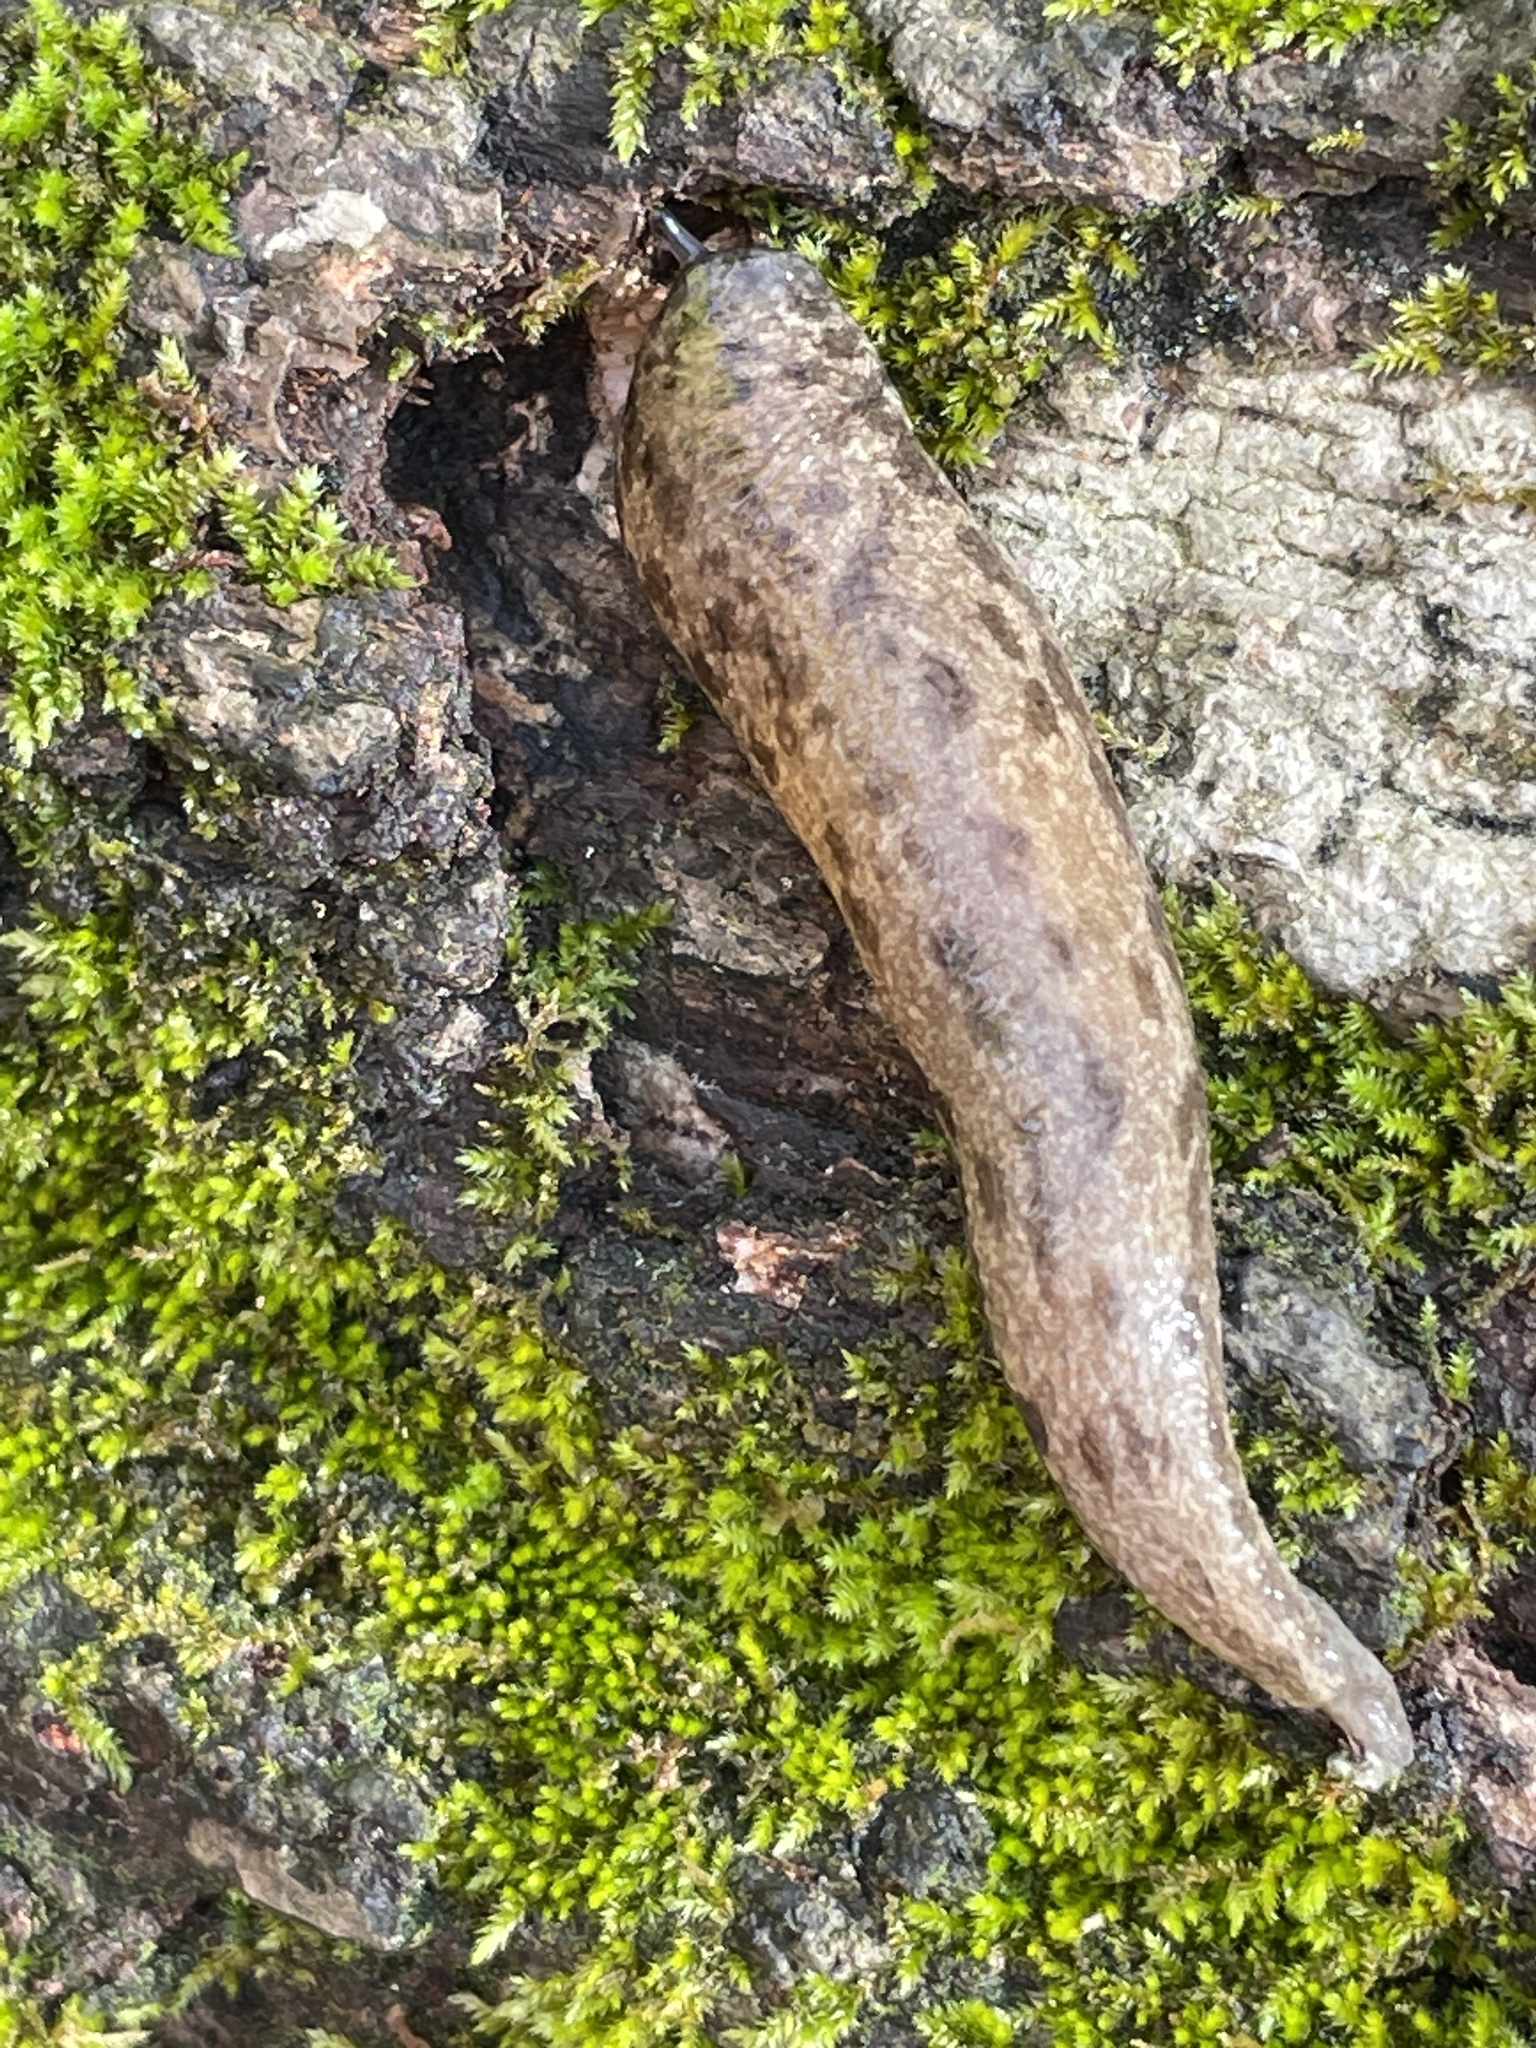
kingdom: Animalia
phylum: Mollusca
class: Gastropoda
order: Stylommatophora
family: Philomycidae
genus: Philomycus
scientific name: Philomycus carolinianus
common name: Carolina mantleslug
